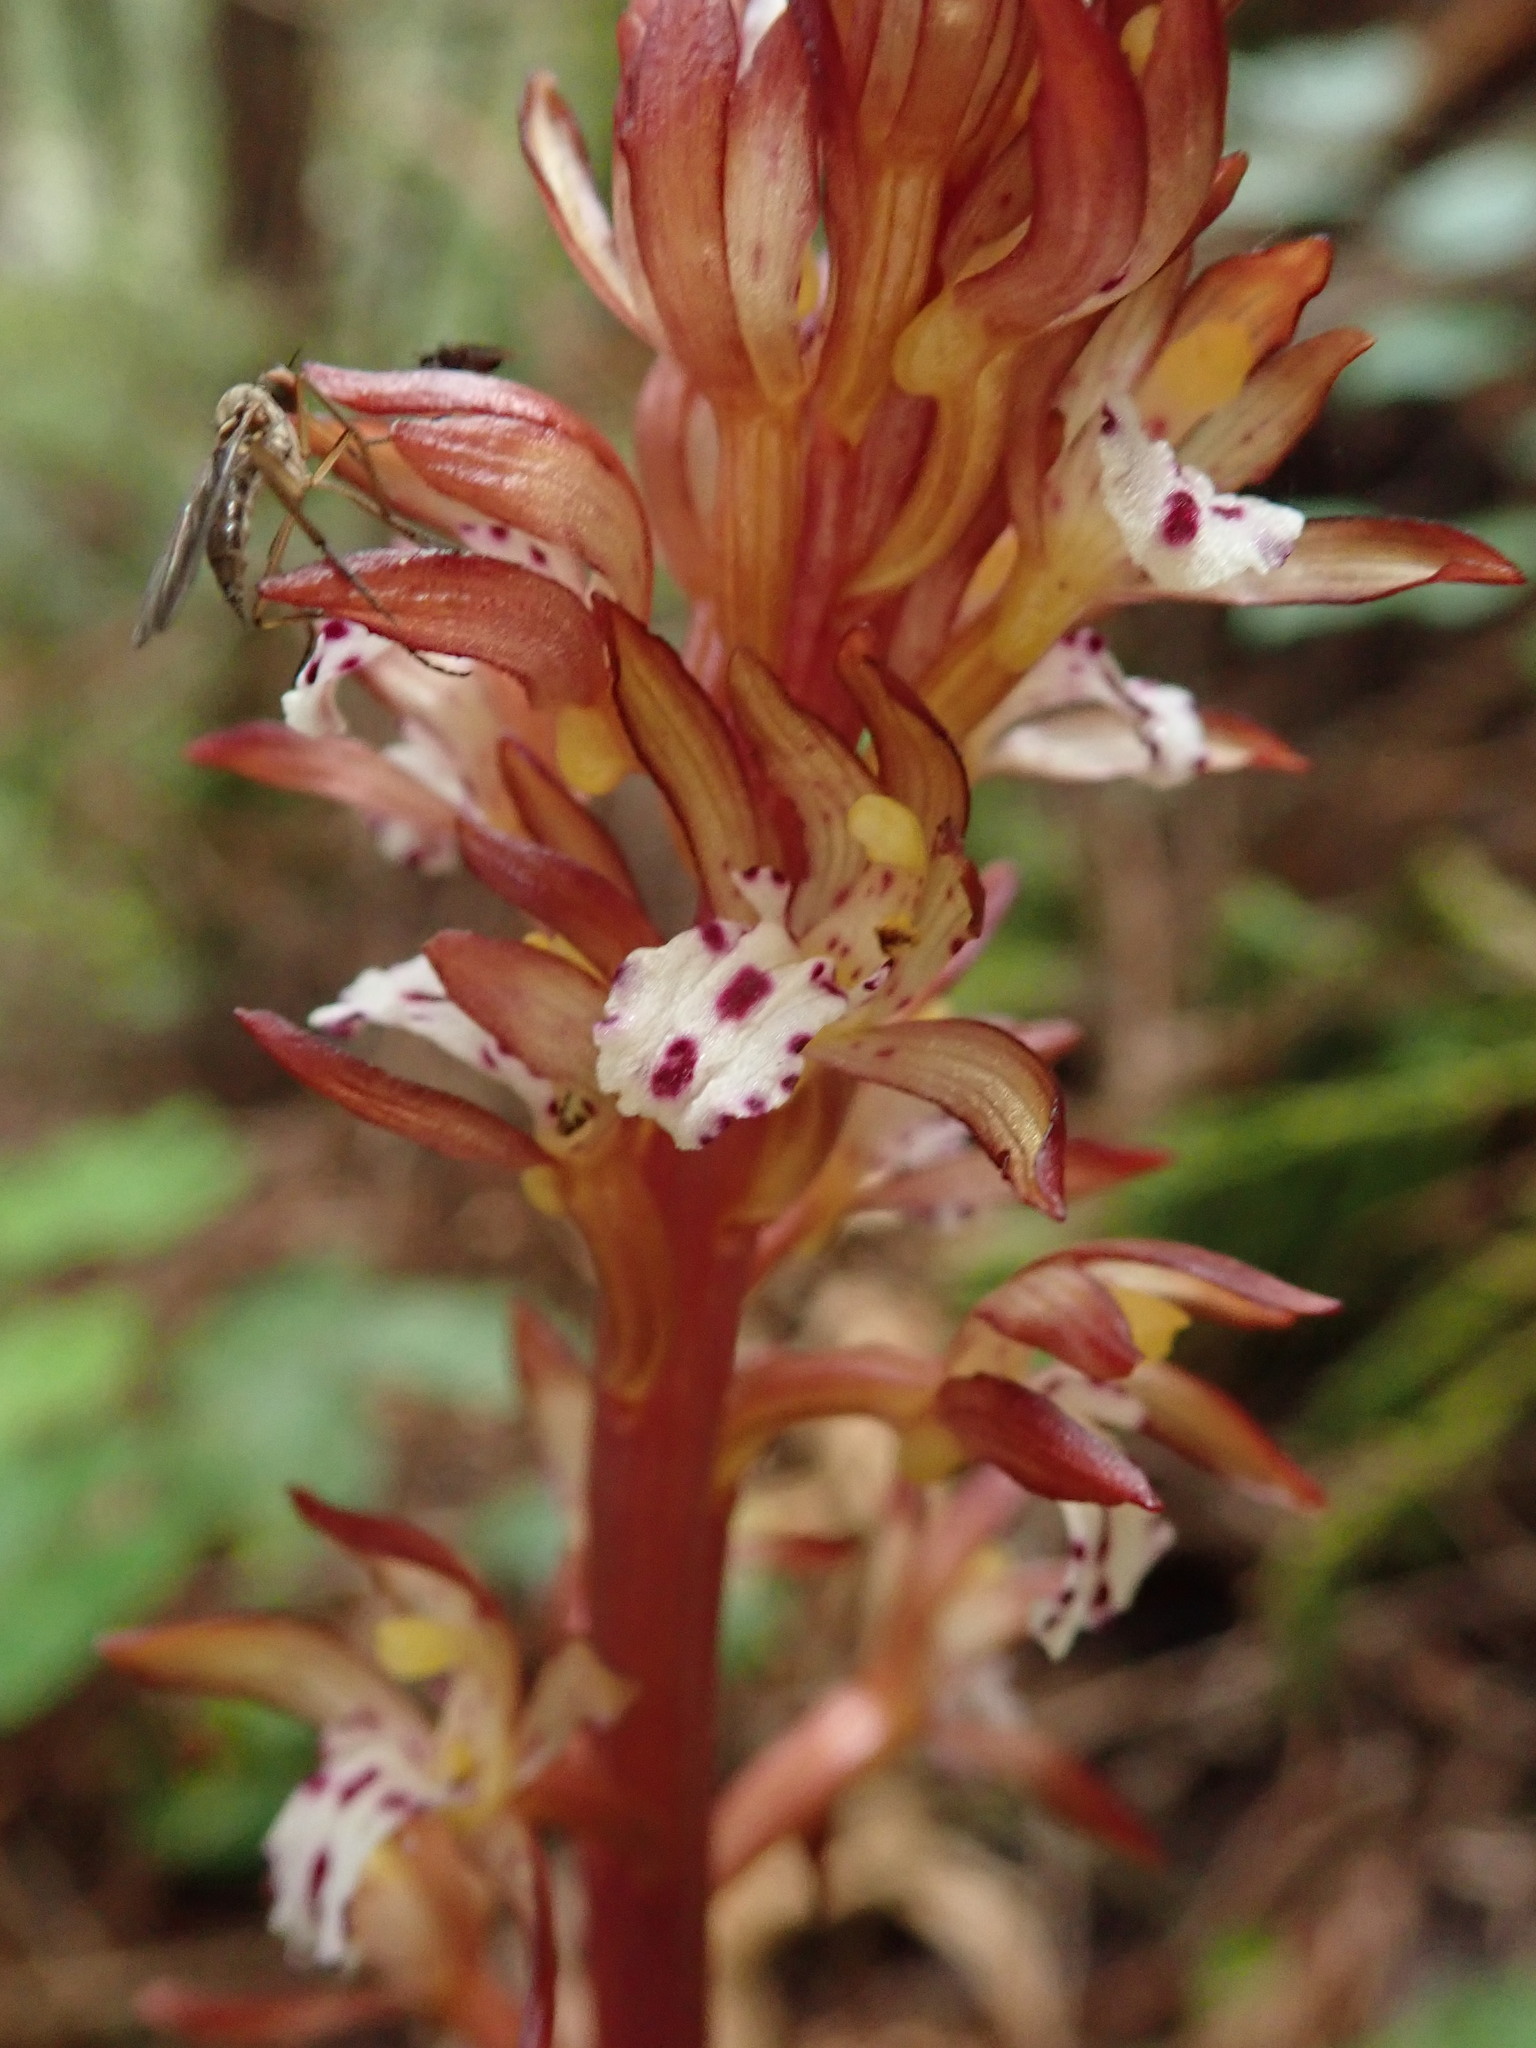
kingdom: Plantae
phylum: Tracheophyta
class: Liliopsida
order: Asparagales
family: Orchidaceae
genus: Corallorhiza
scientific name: Corallorhiza maculata
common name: Spotted coralroot
